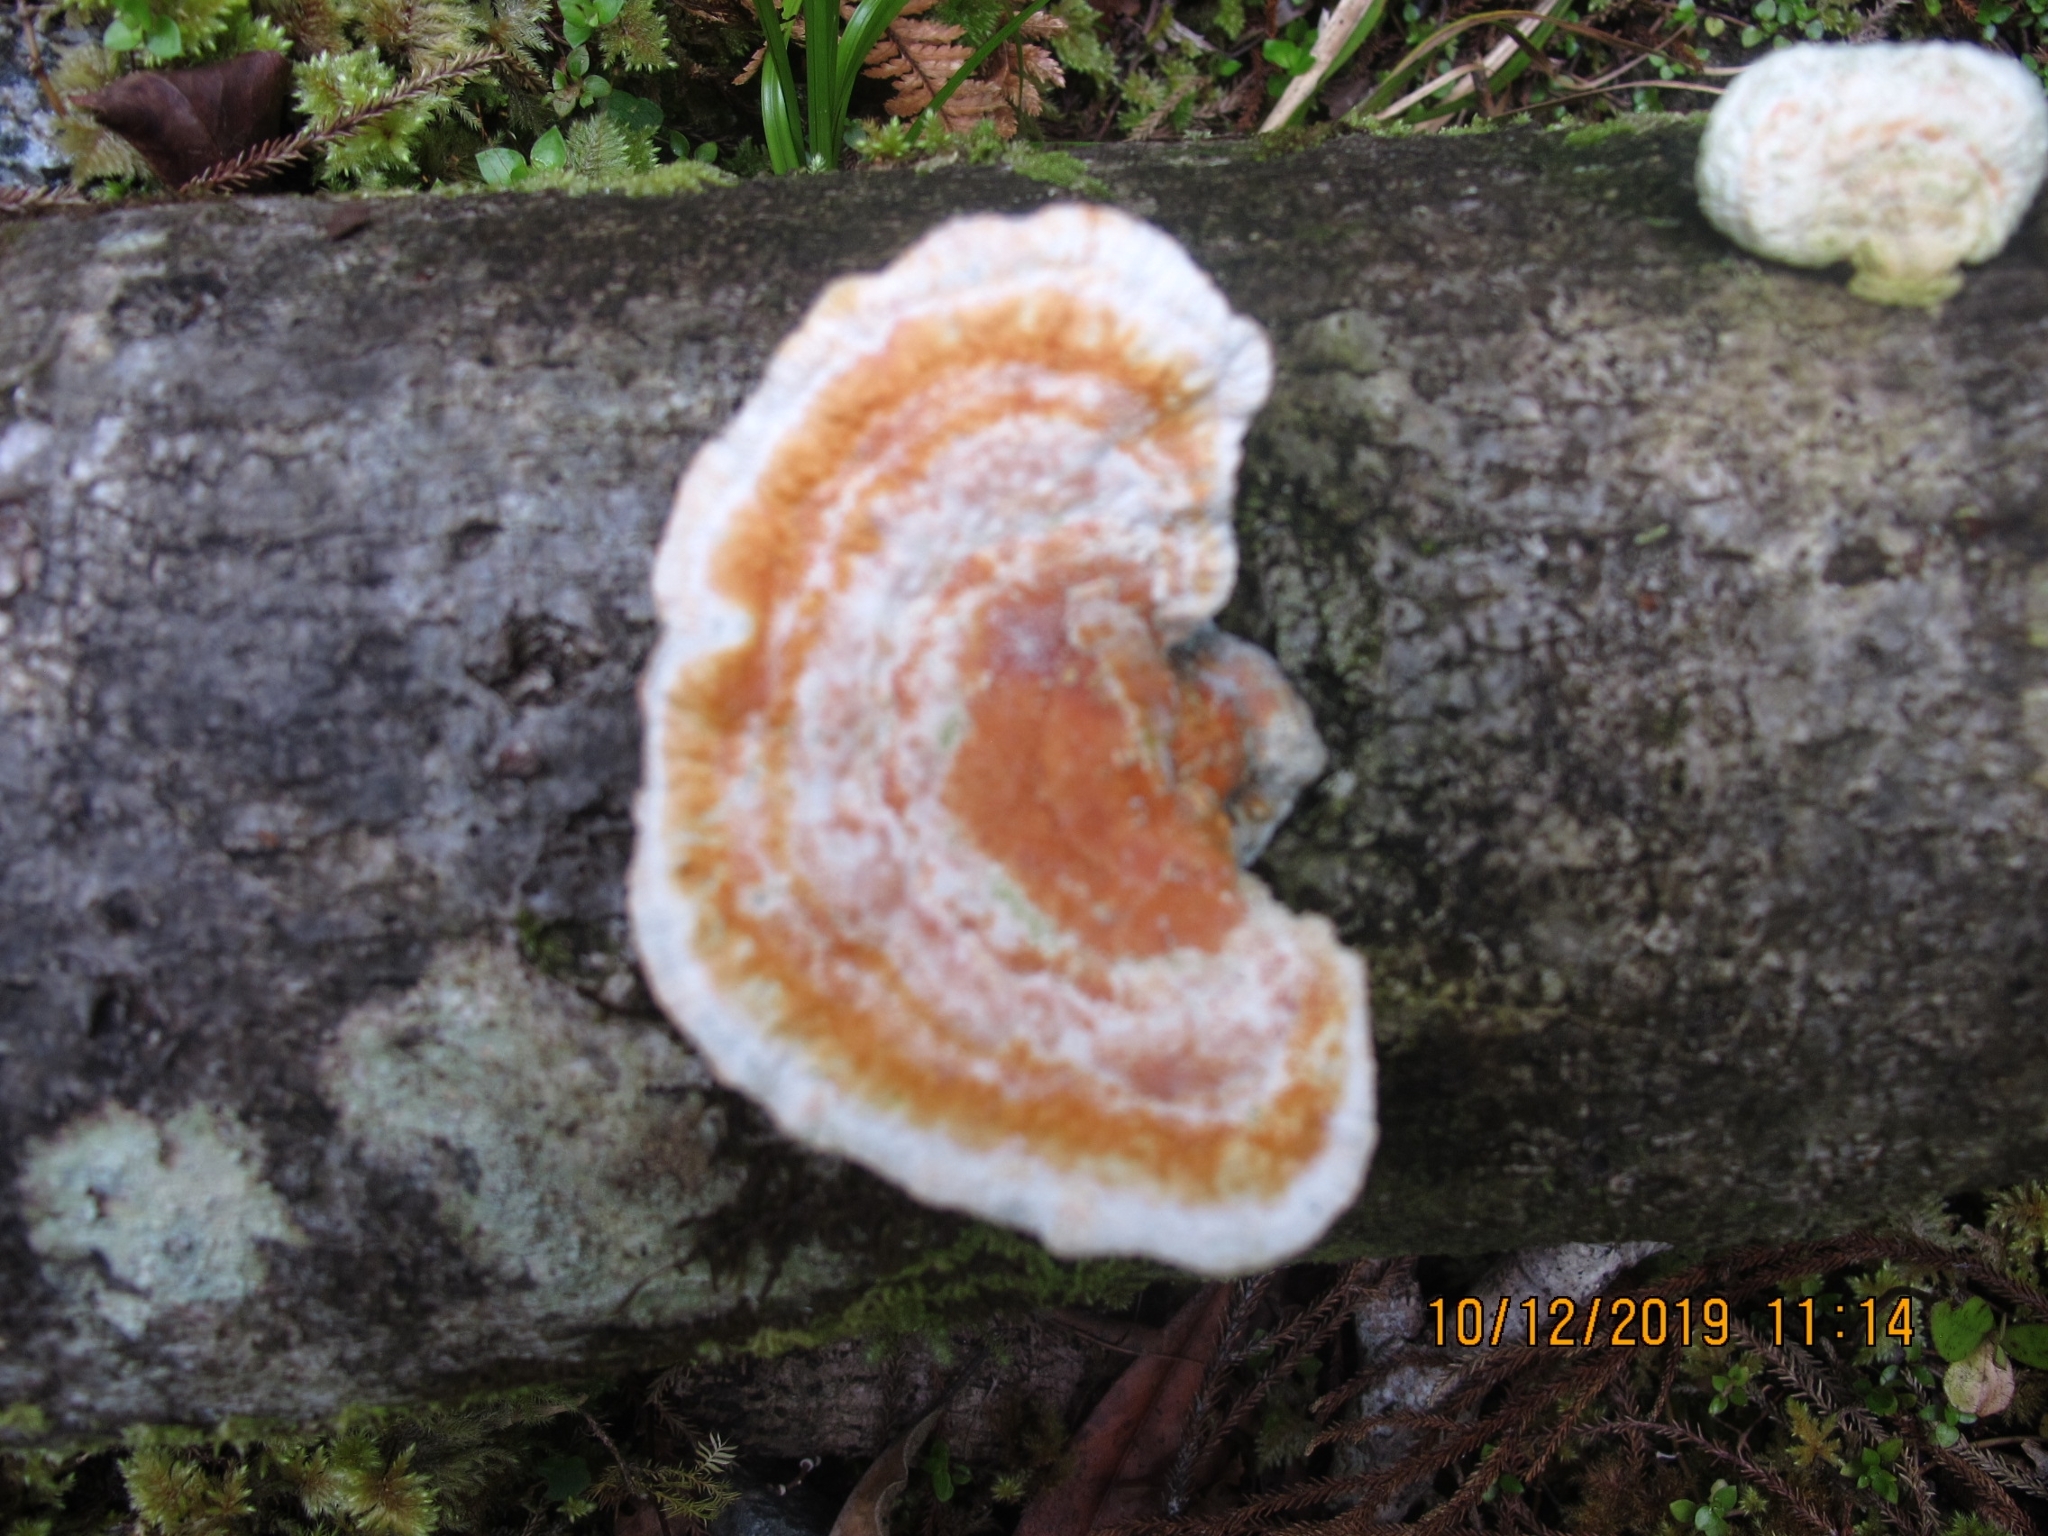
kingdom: Fungi
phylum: Basidiomycota
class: Agaricomycetes
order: Polyporales
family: Polyporaceae
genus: Trametes
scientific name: Trametes coccinea
